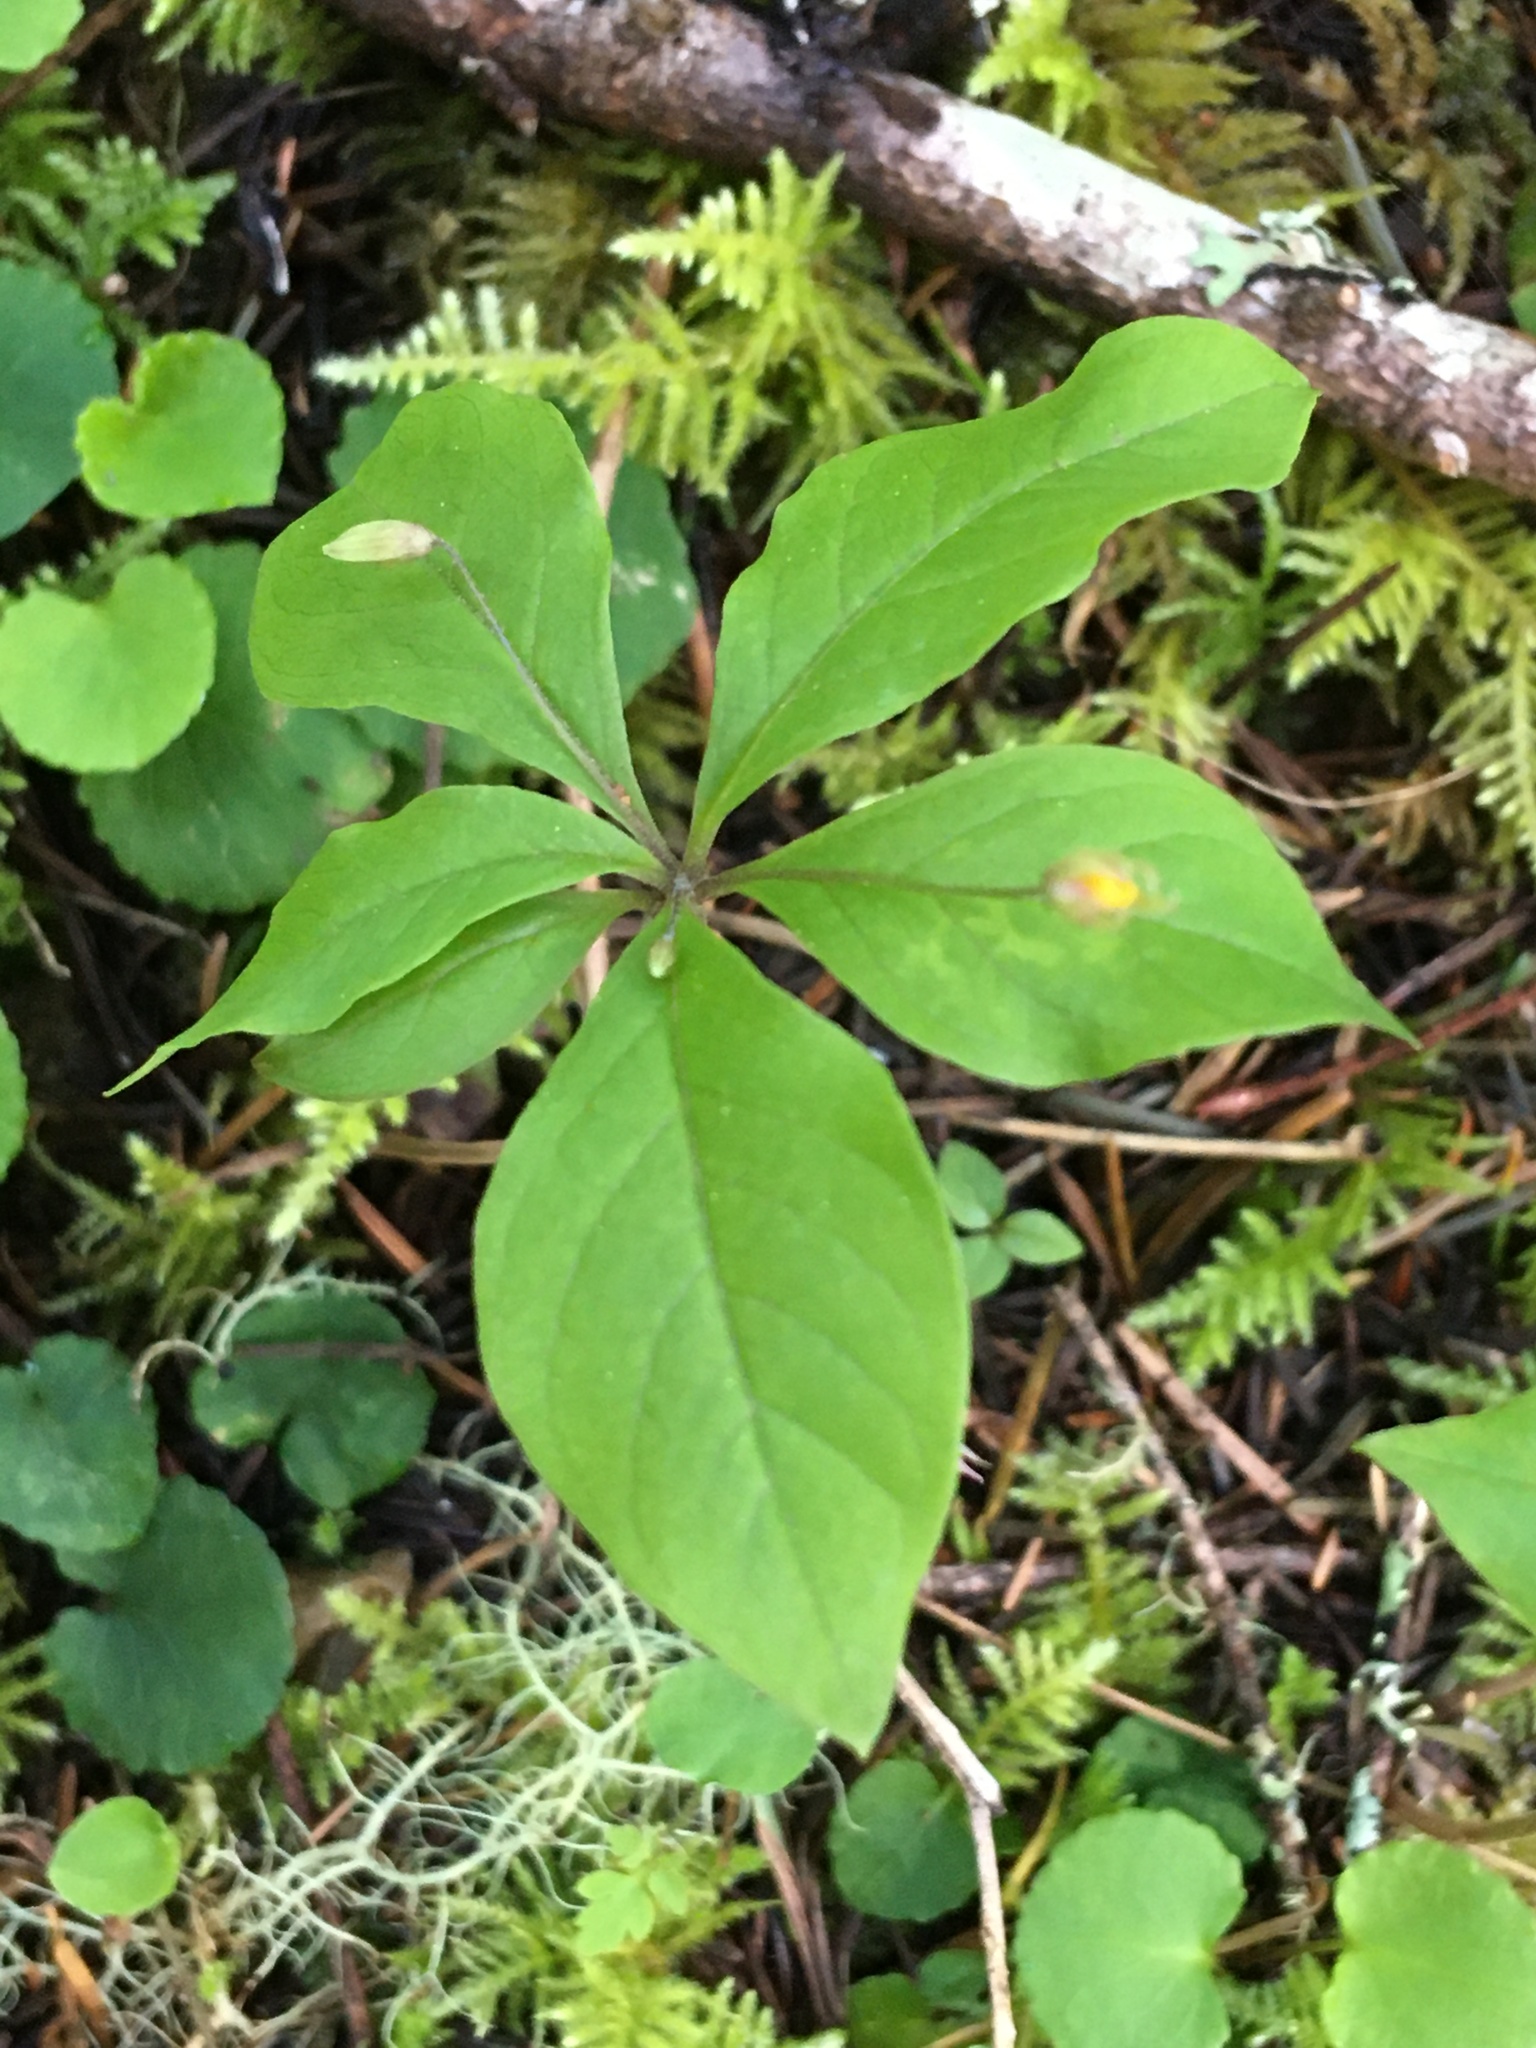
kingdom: Plantae
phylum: Tracheophyta
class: Magnoliopsida
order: Ericales
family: Primulaceae
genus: Lysimachia
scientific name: Lysimachia latifolia
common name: Pacific starflower
